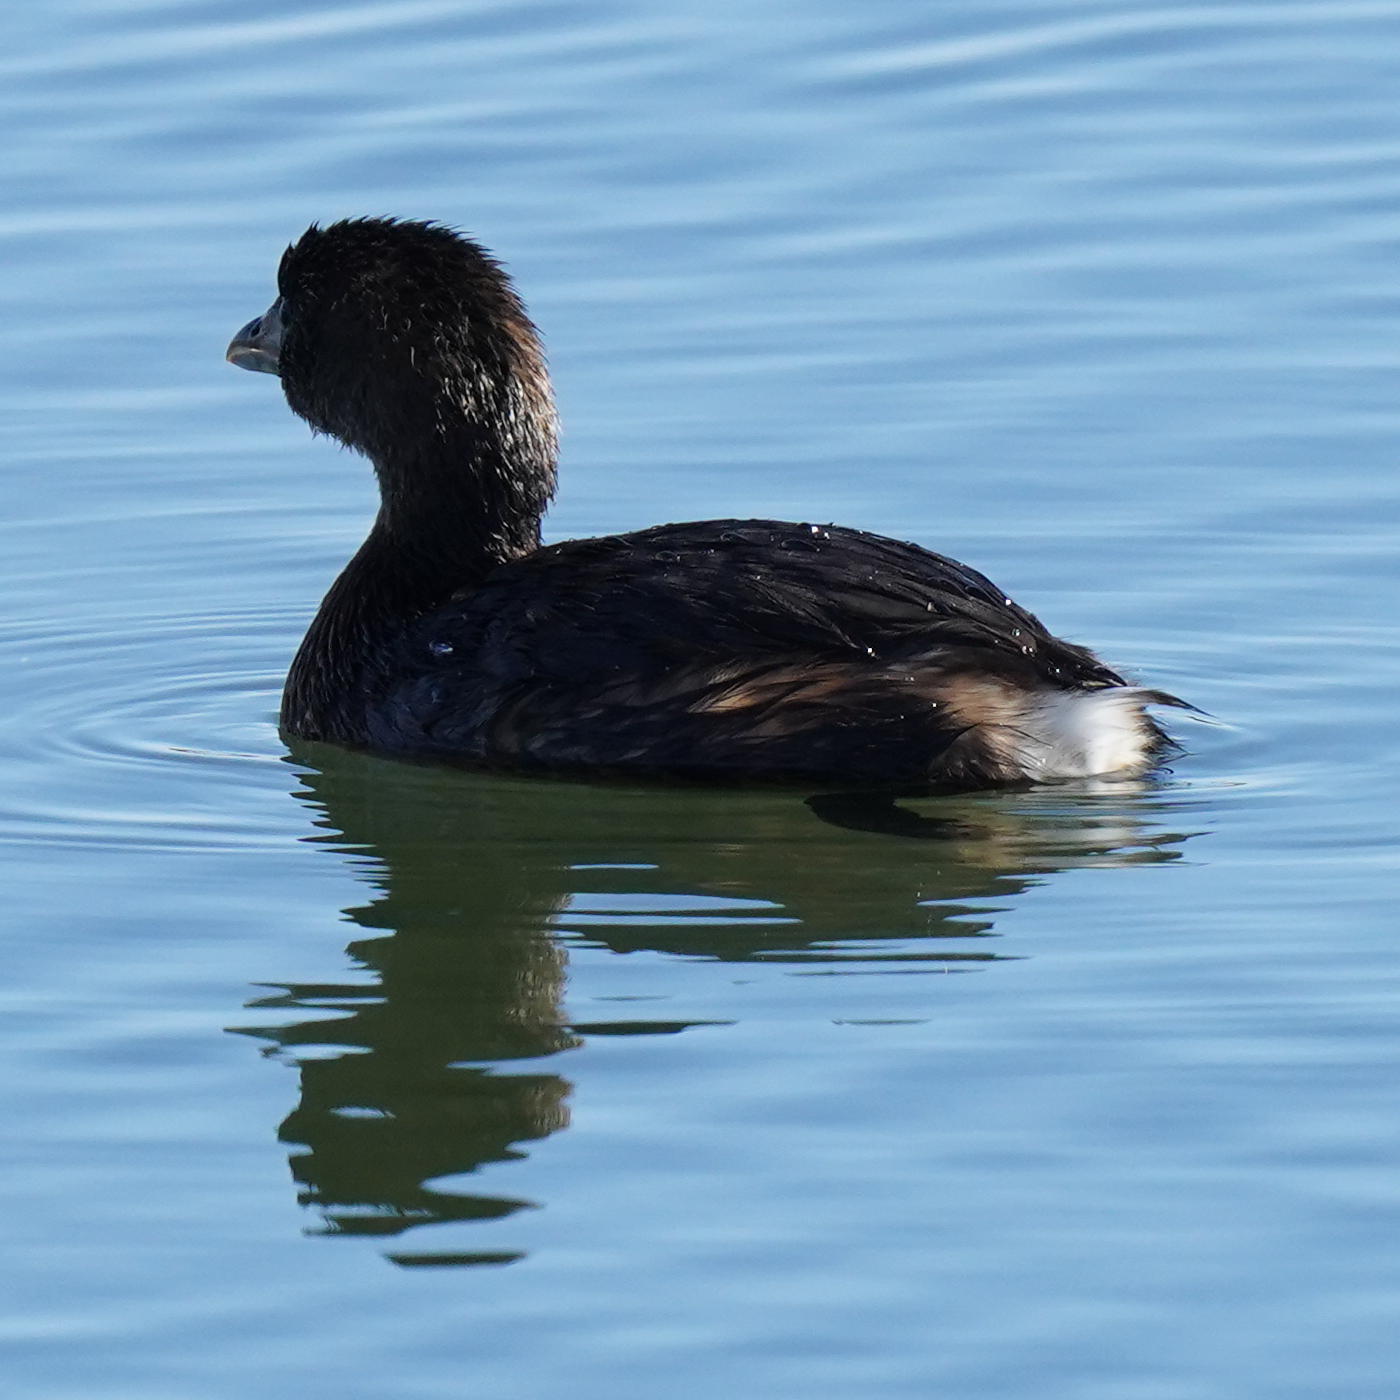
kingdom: Animalia
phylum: Chordata
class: Aves
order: Podicipediformes
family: Podicipedidae
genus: Podilymbus
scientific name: Podilymbus podiceps
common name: Pied-billed grebe
